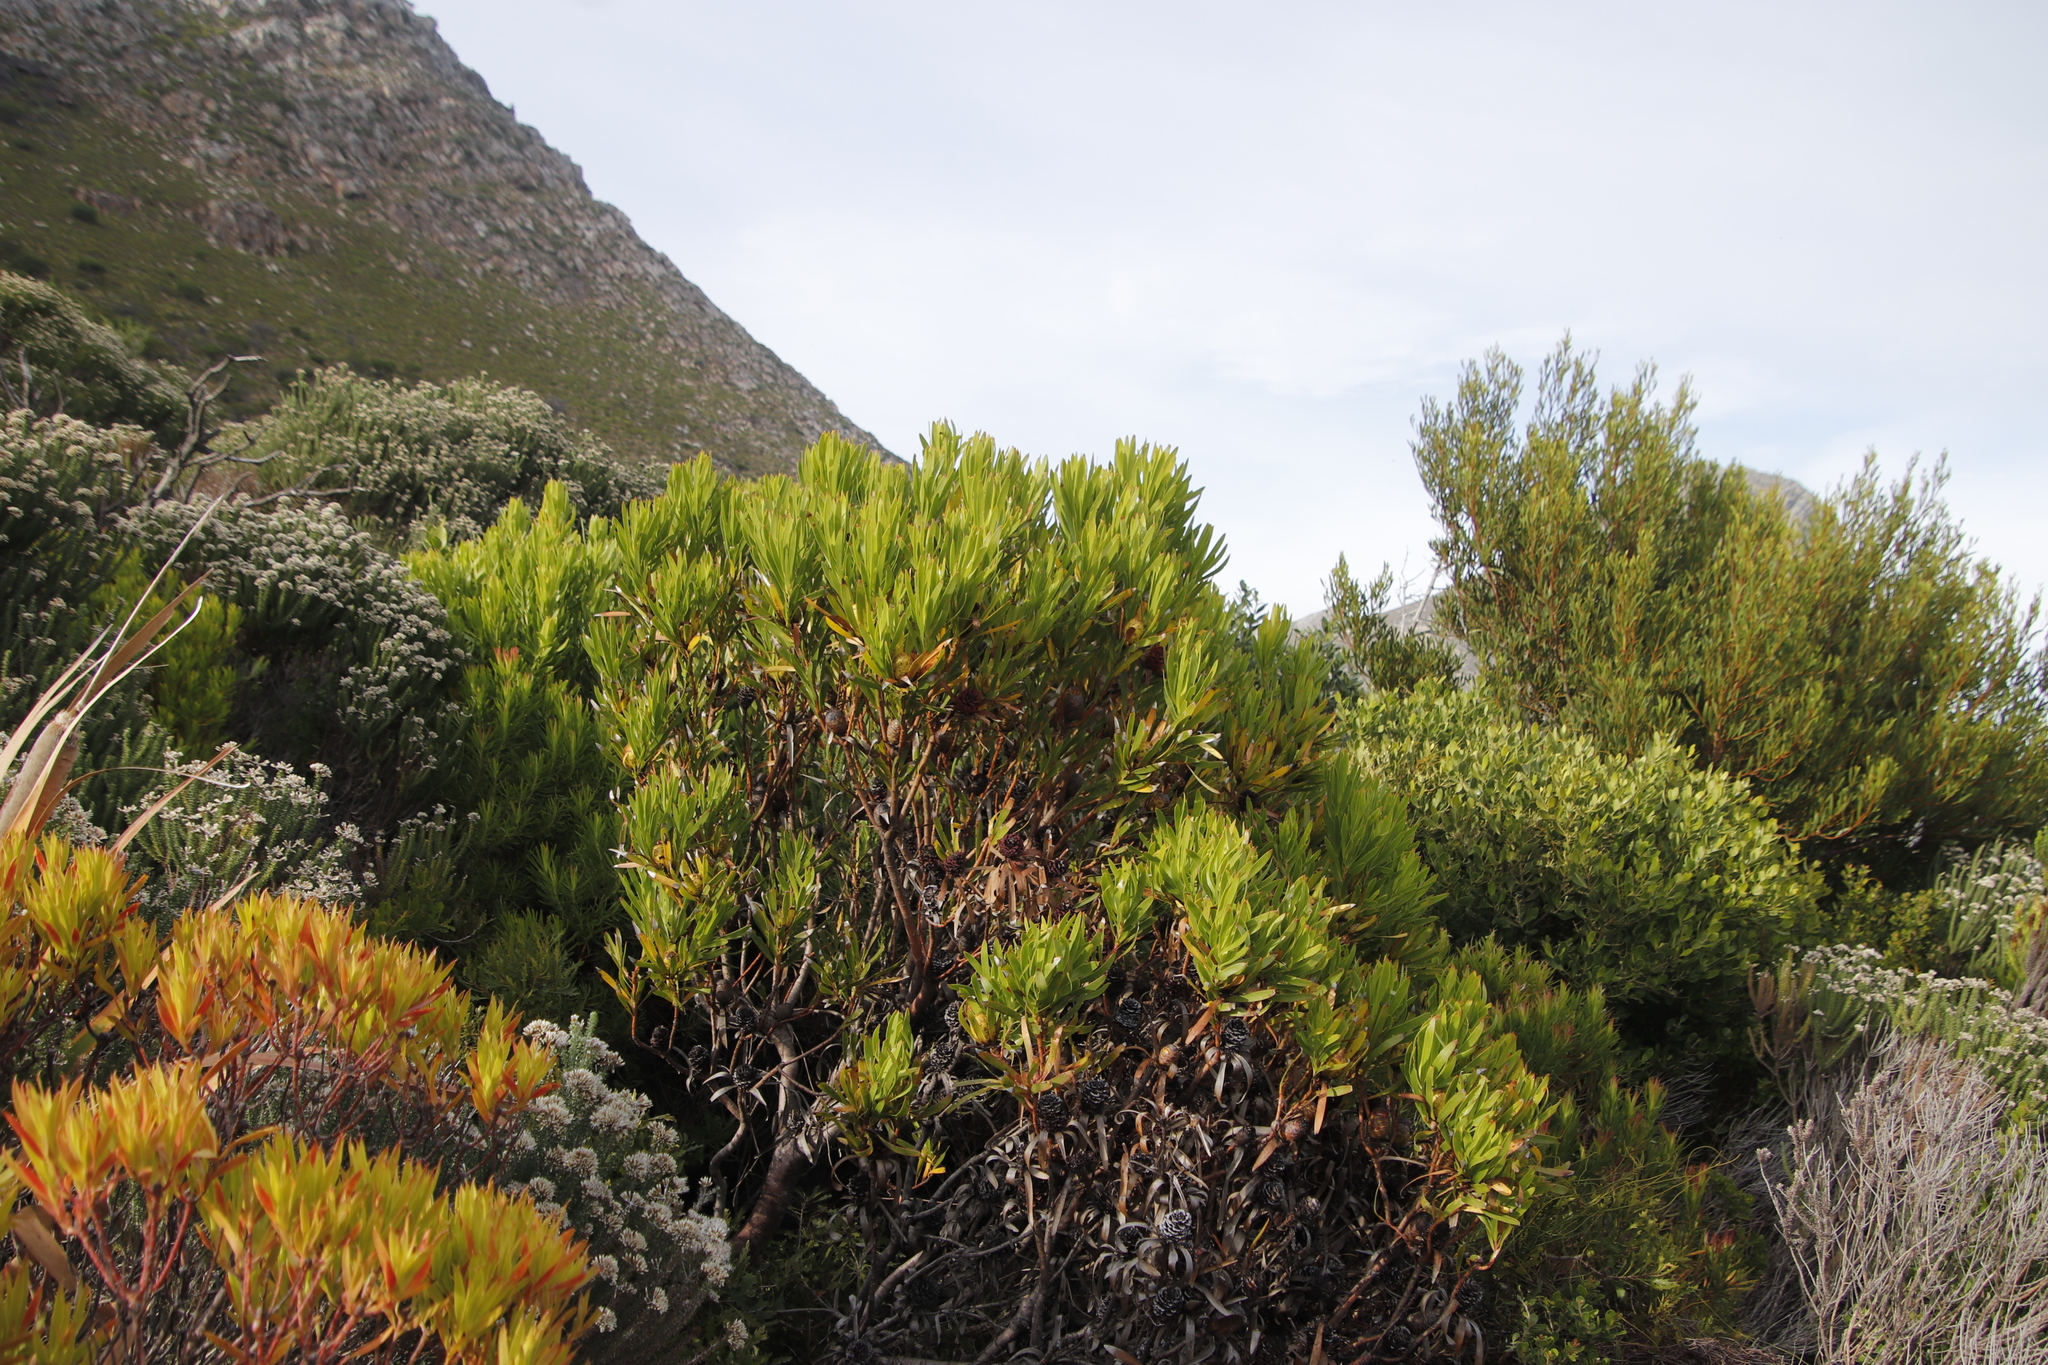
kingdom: Plantae
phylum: Tracheophyta
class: Magnoliopsida
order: Proteales
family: Proteaceae
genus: Leucadendron
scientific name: Leucadendron xanthoconus
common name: Sickle-leaf conebush
